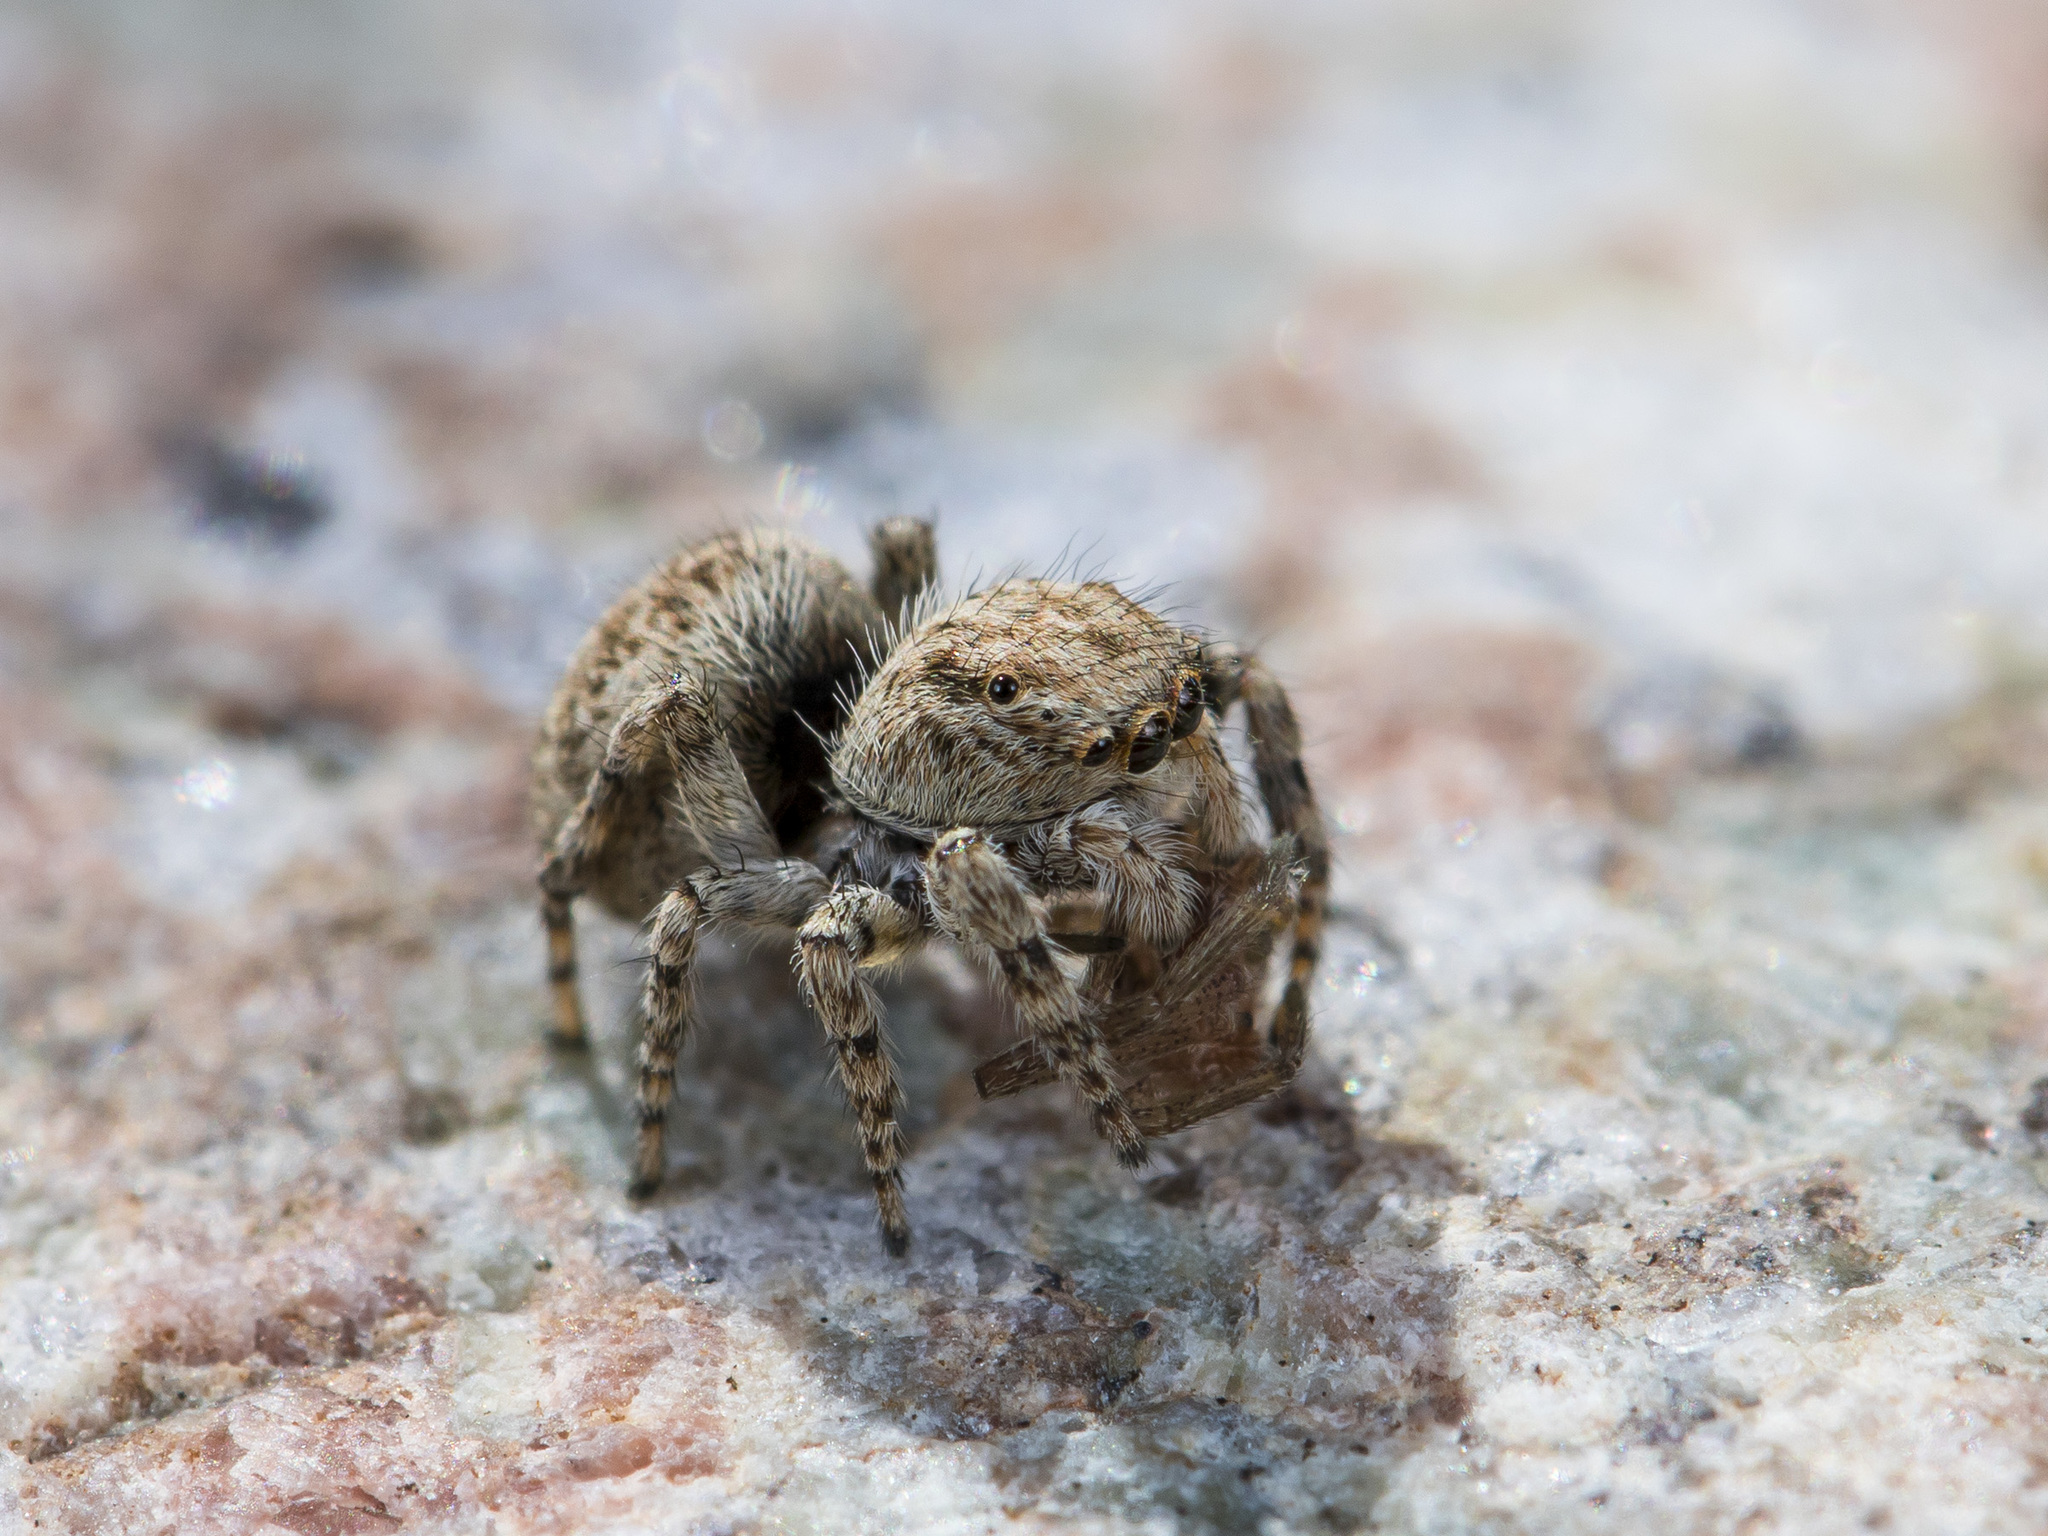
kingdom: Animalia
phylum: Arthropoda
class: Arachnida
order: Araneae
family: Salticidae
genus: Attulus
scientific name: Attulus avocator
